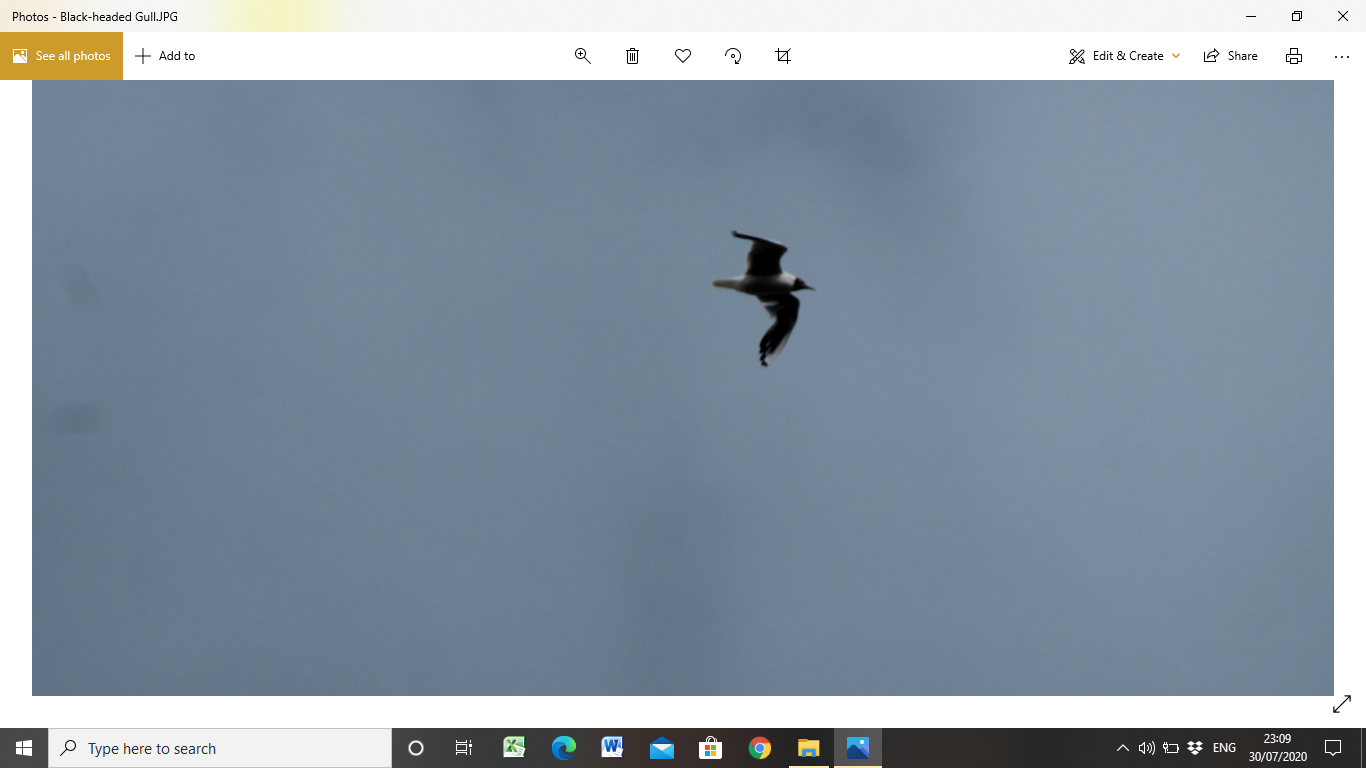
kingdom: Animalia
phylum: Chordata
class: Aves
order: Charadriiformes
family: Laridae
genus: Chroicocephalus
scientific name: Chroicocephalus ridibundus
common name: Black-headed gull
